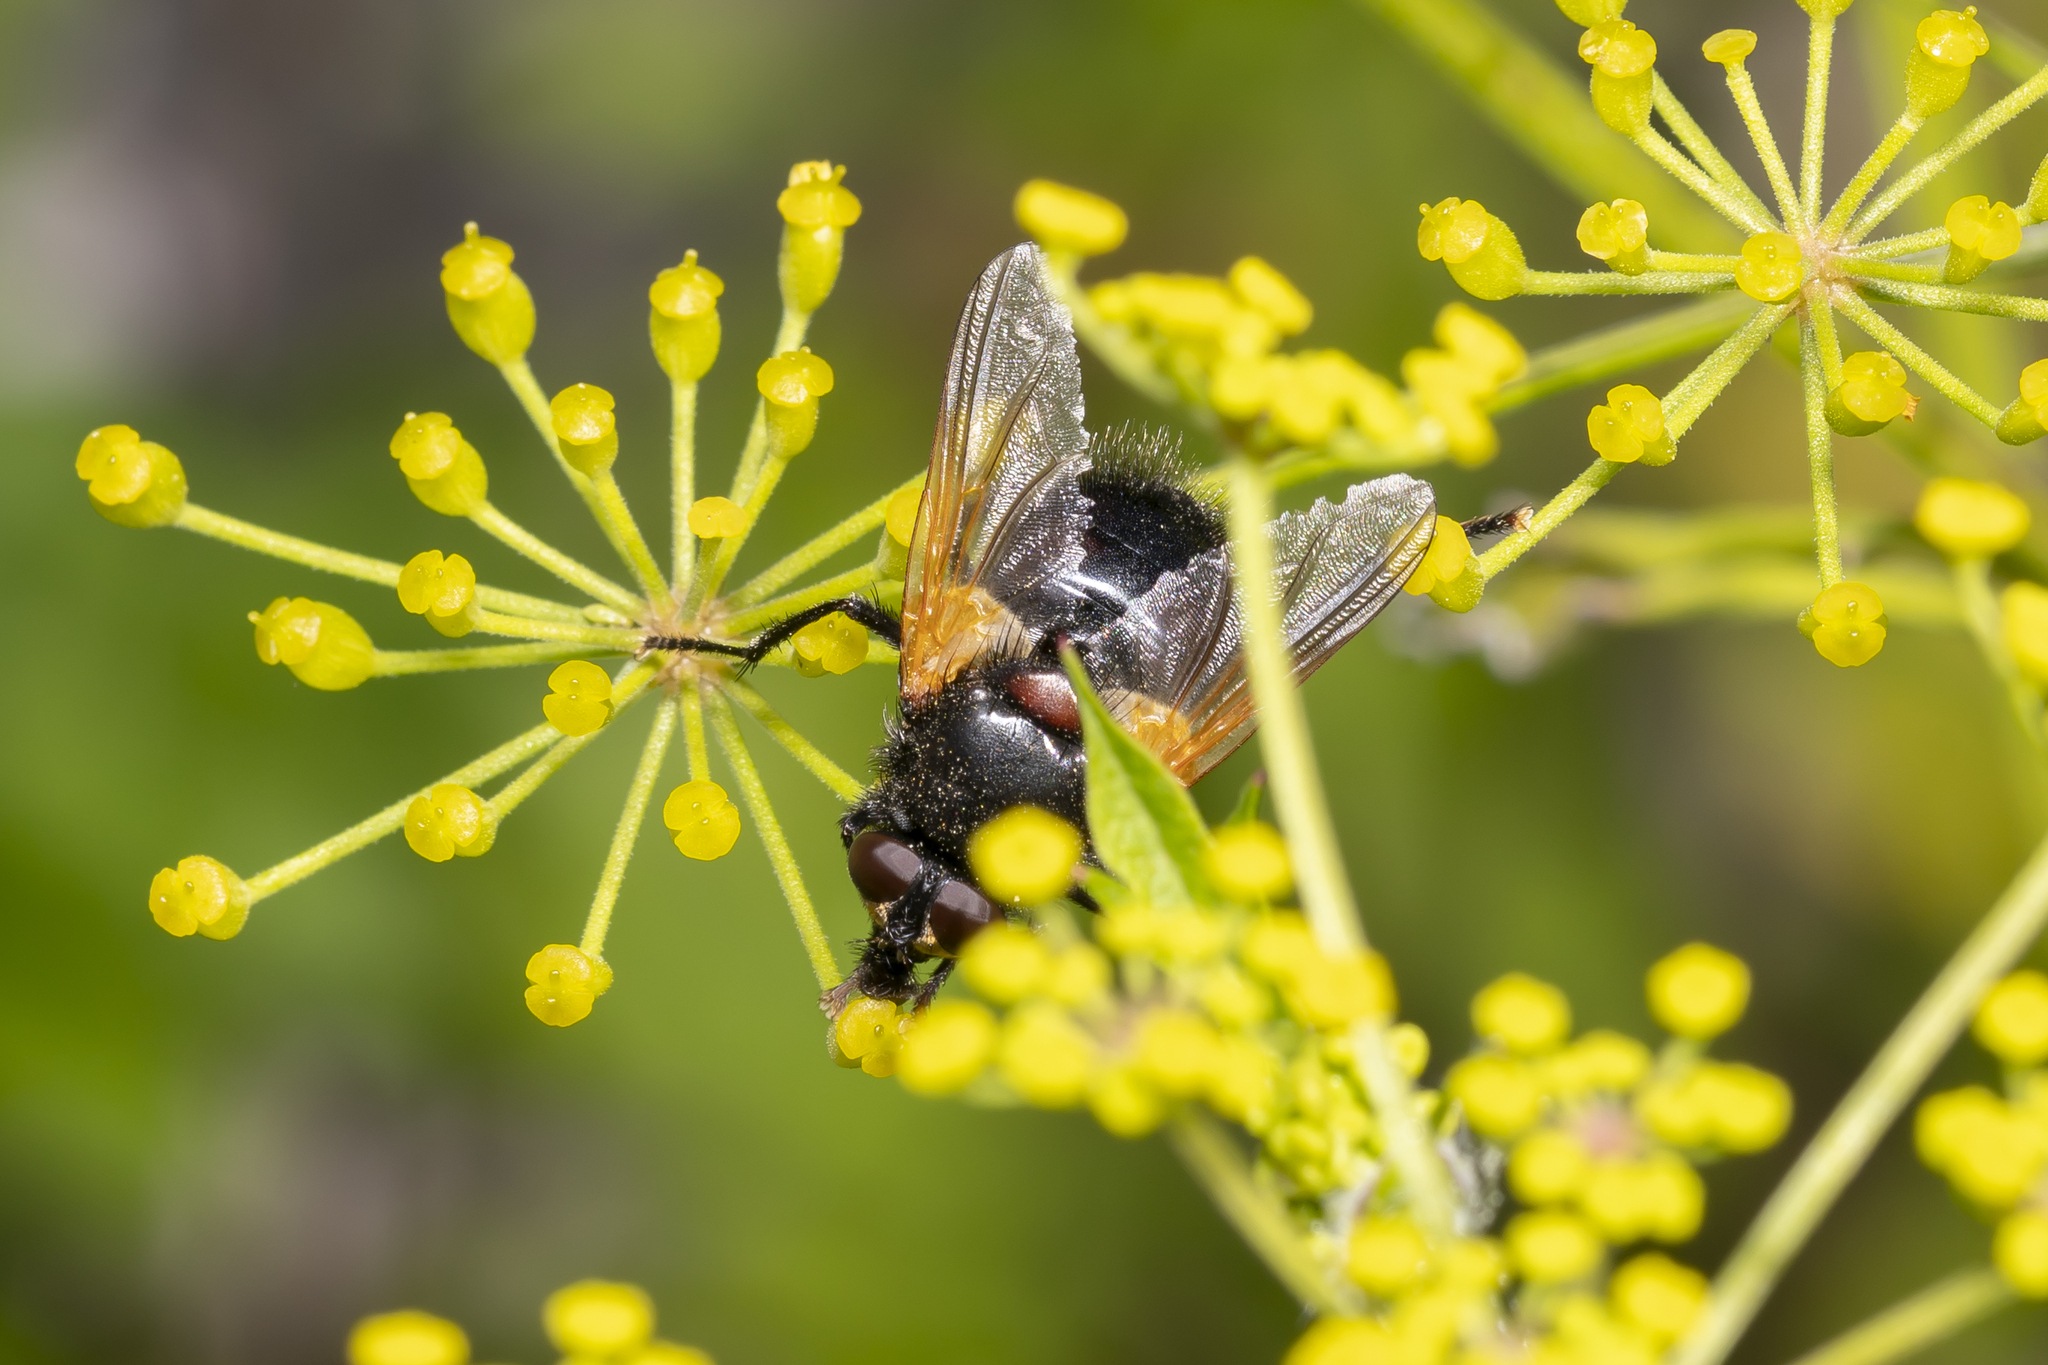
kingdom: Animalia
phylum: Arthropoda
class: Insecta
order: Diptera
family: Muscidae
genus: Mesembrina
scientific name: Mesembrina meridiana
